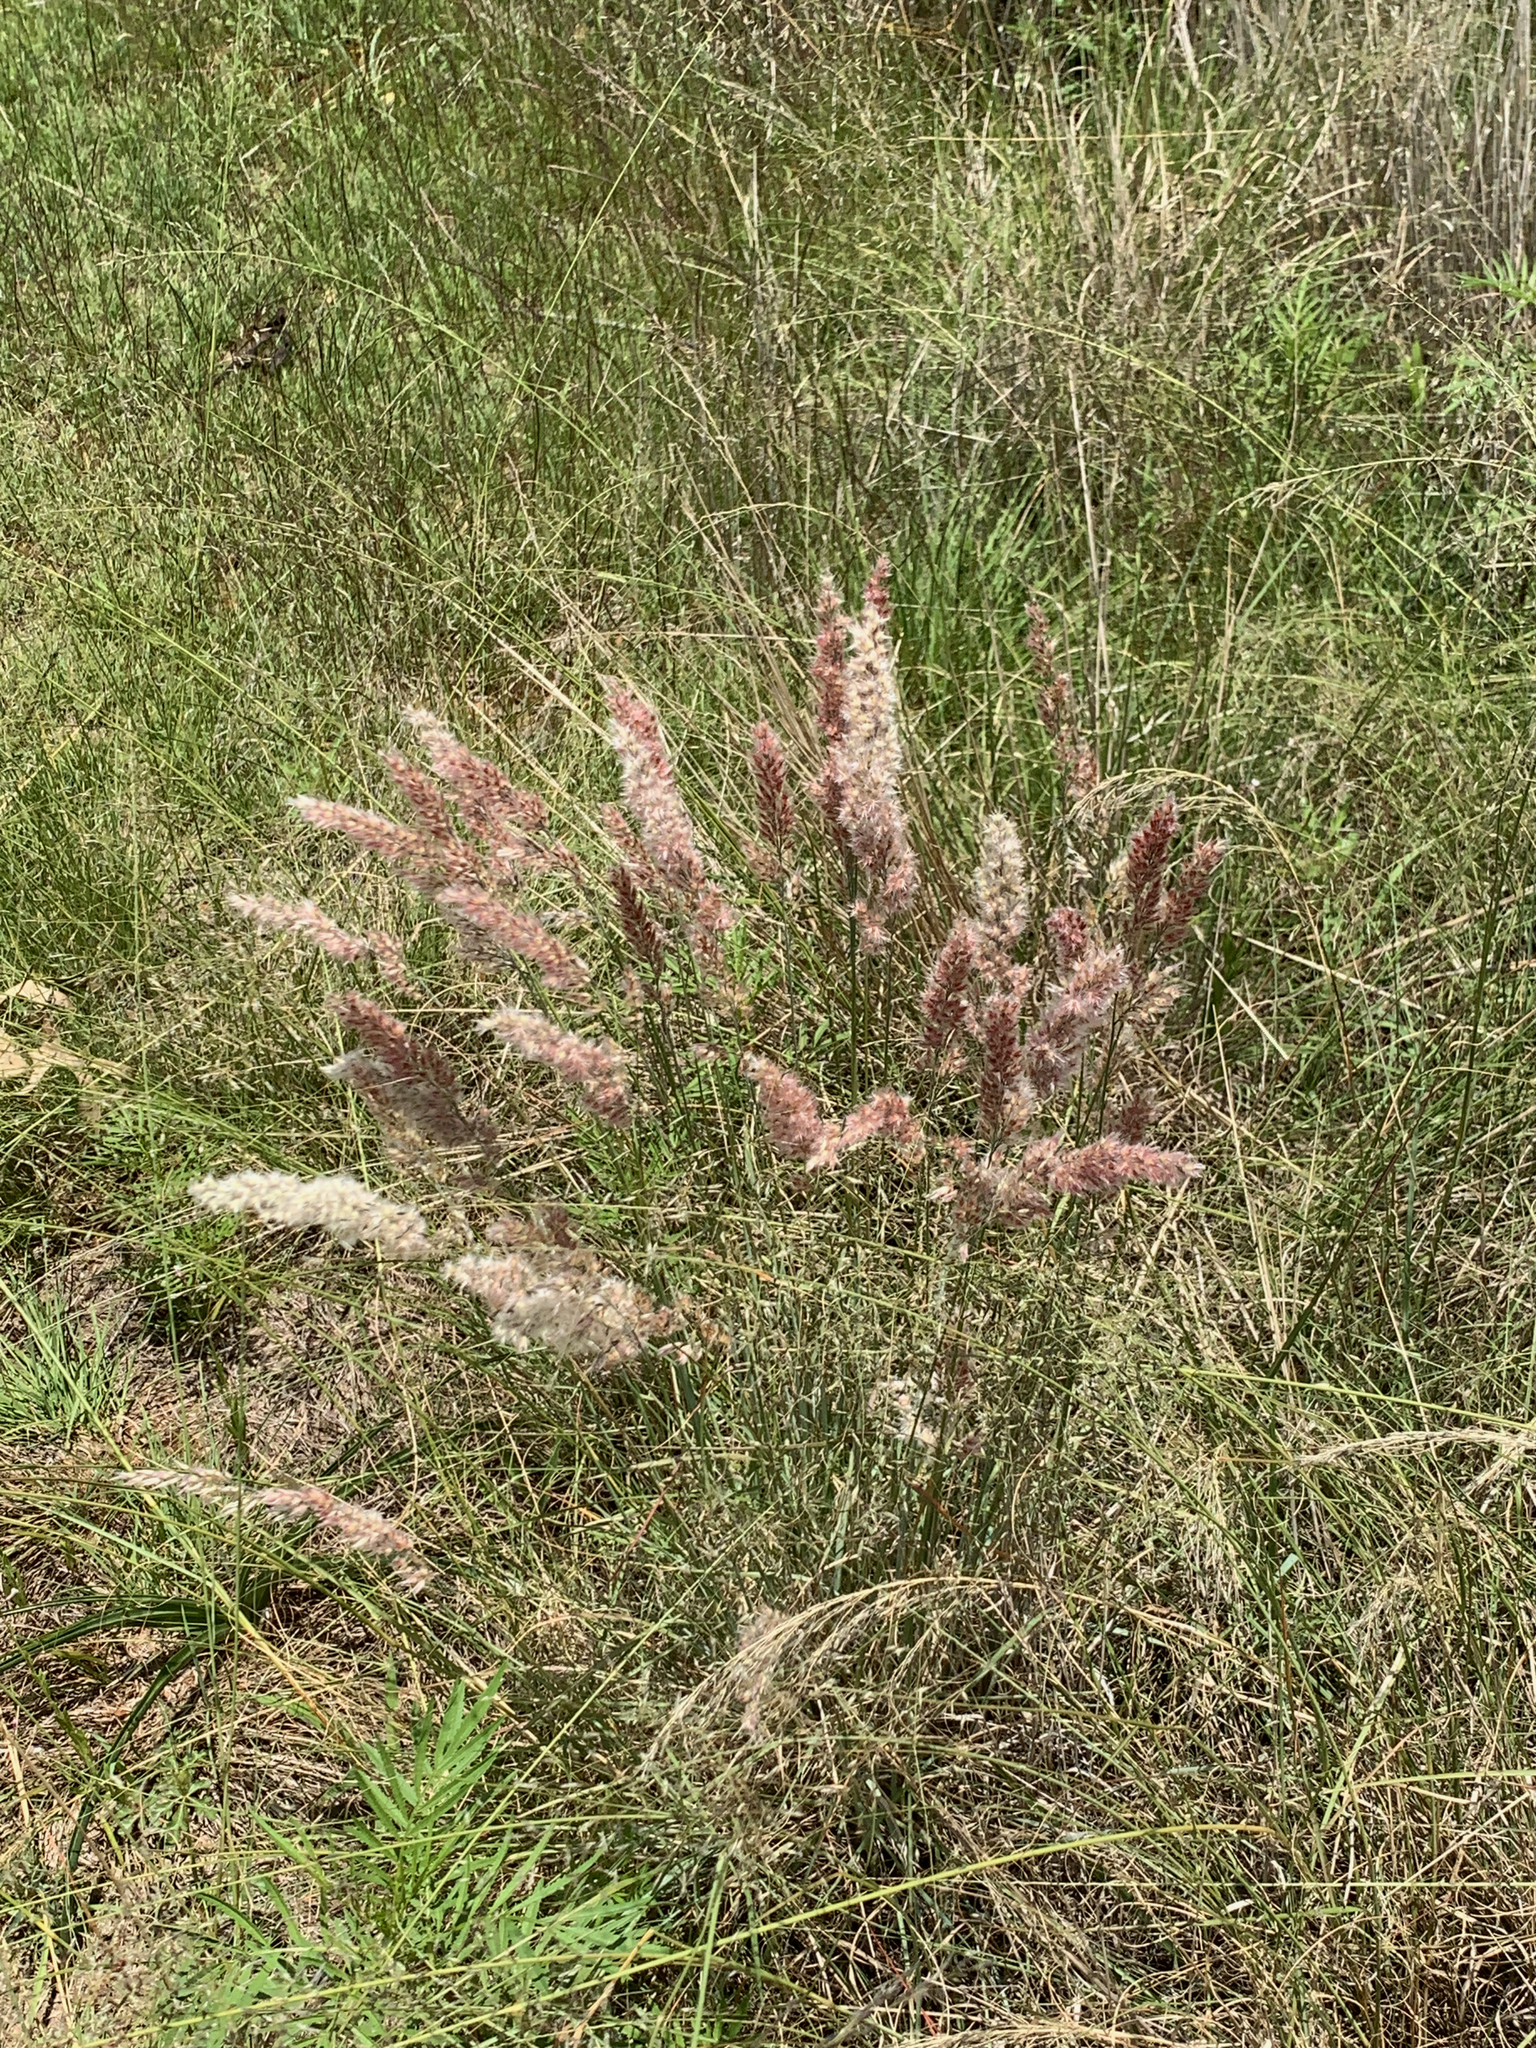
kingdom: Plantae
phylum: Tracheophyta
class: Liliopsida
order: Poales
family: Poaceae
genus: Melinis
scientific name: Melinis nerviglumis
